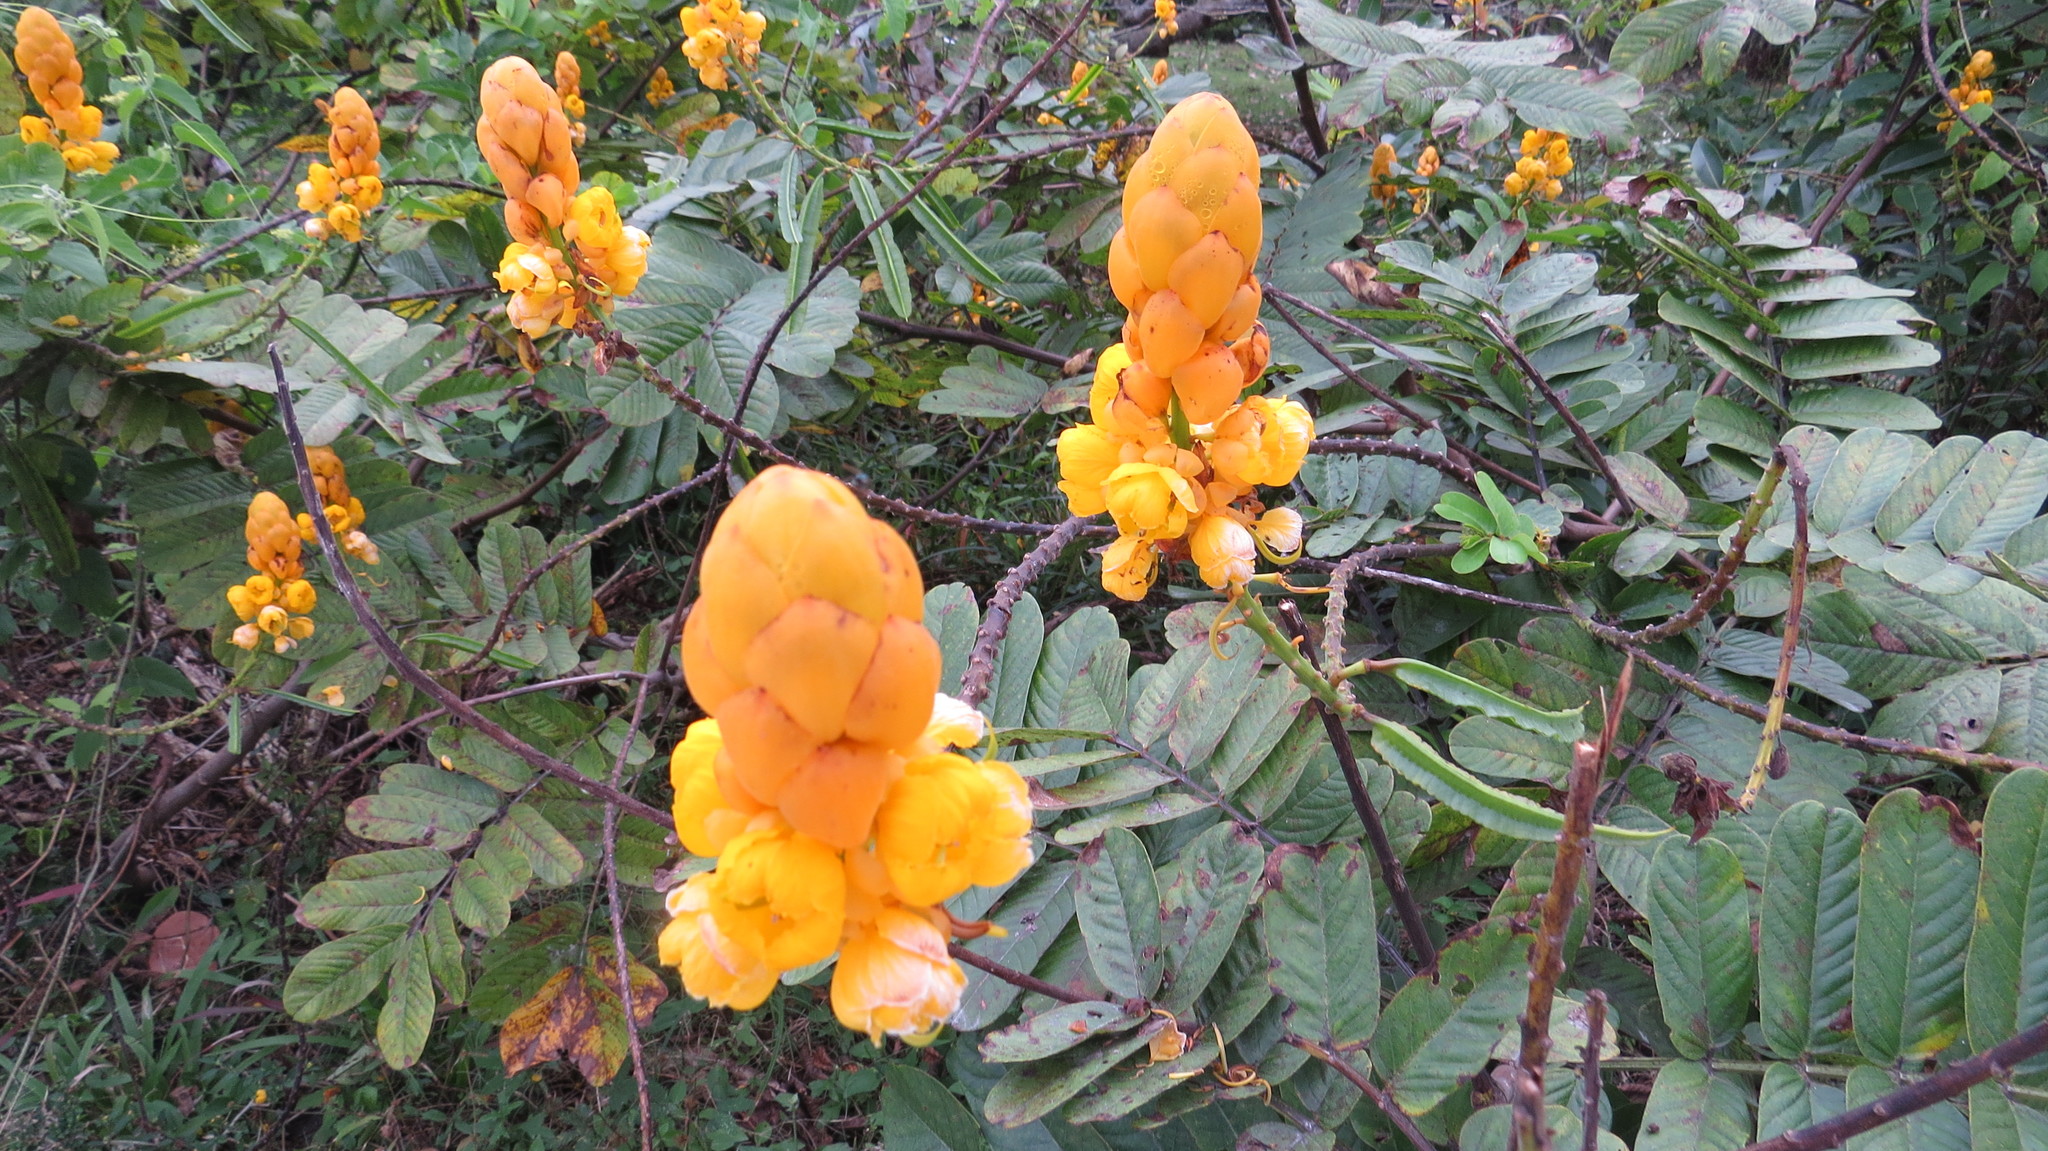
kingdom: Plantae
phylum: Tracheophyta
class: Magnoliopsida
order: Fabales
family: Fabaceae
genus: Senna
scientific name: Senna alata
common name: Emperor's candlesticks
